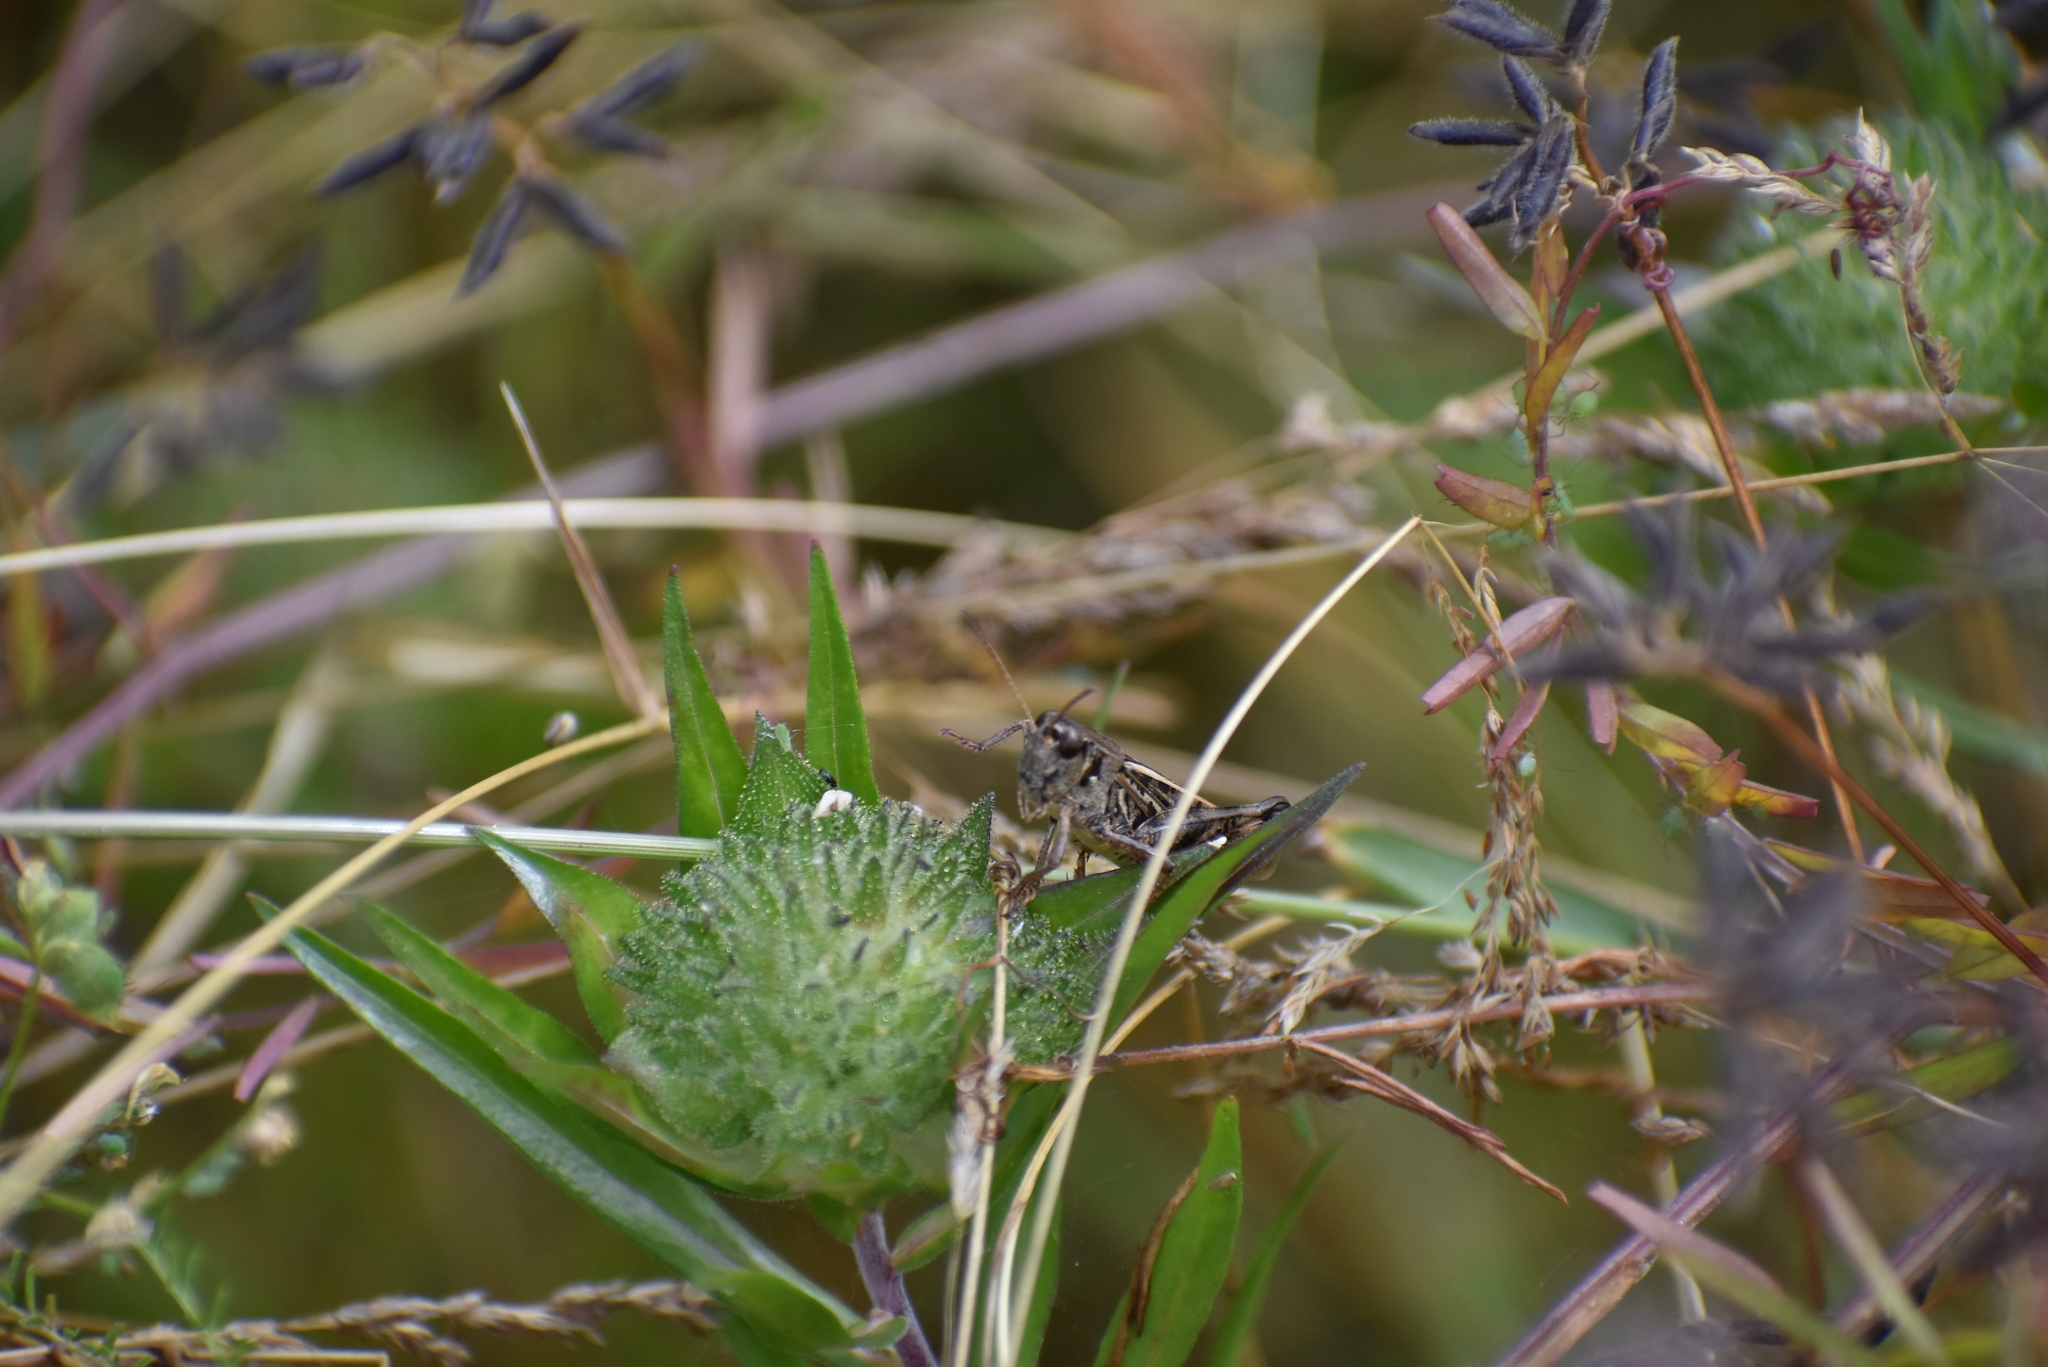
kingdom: Animalia
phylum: Arthropoda
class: Insecta
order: Orthoptera
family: Acrididae
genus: Camnula
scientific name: Camnula pellucida
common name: Clear-winged grasshopper
